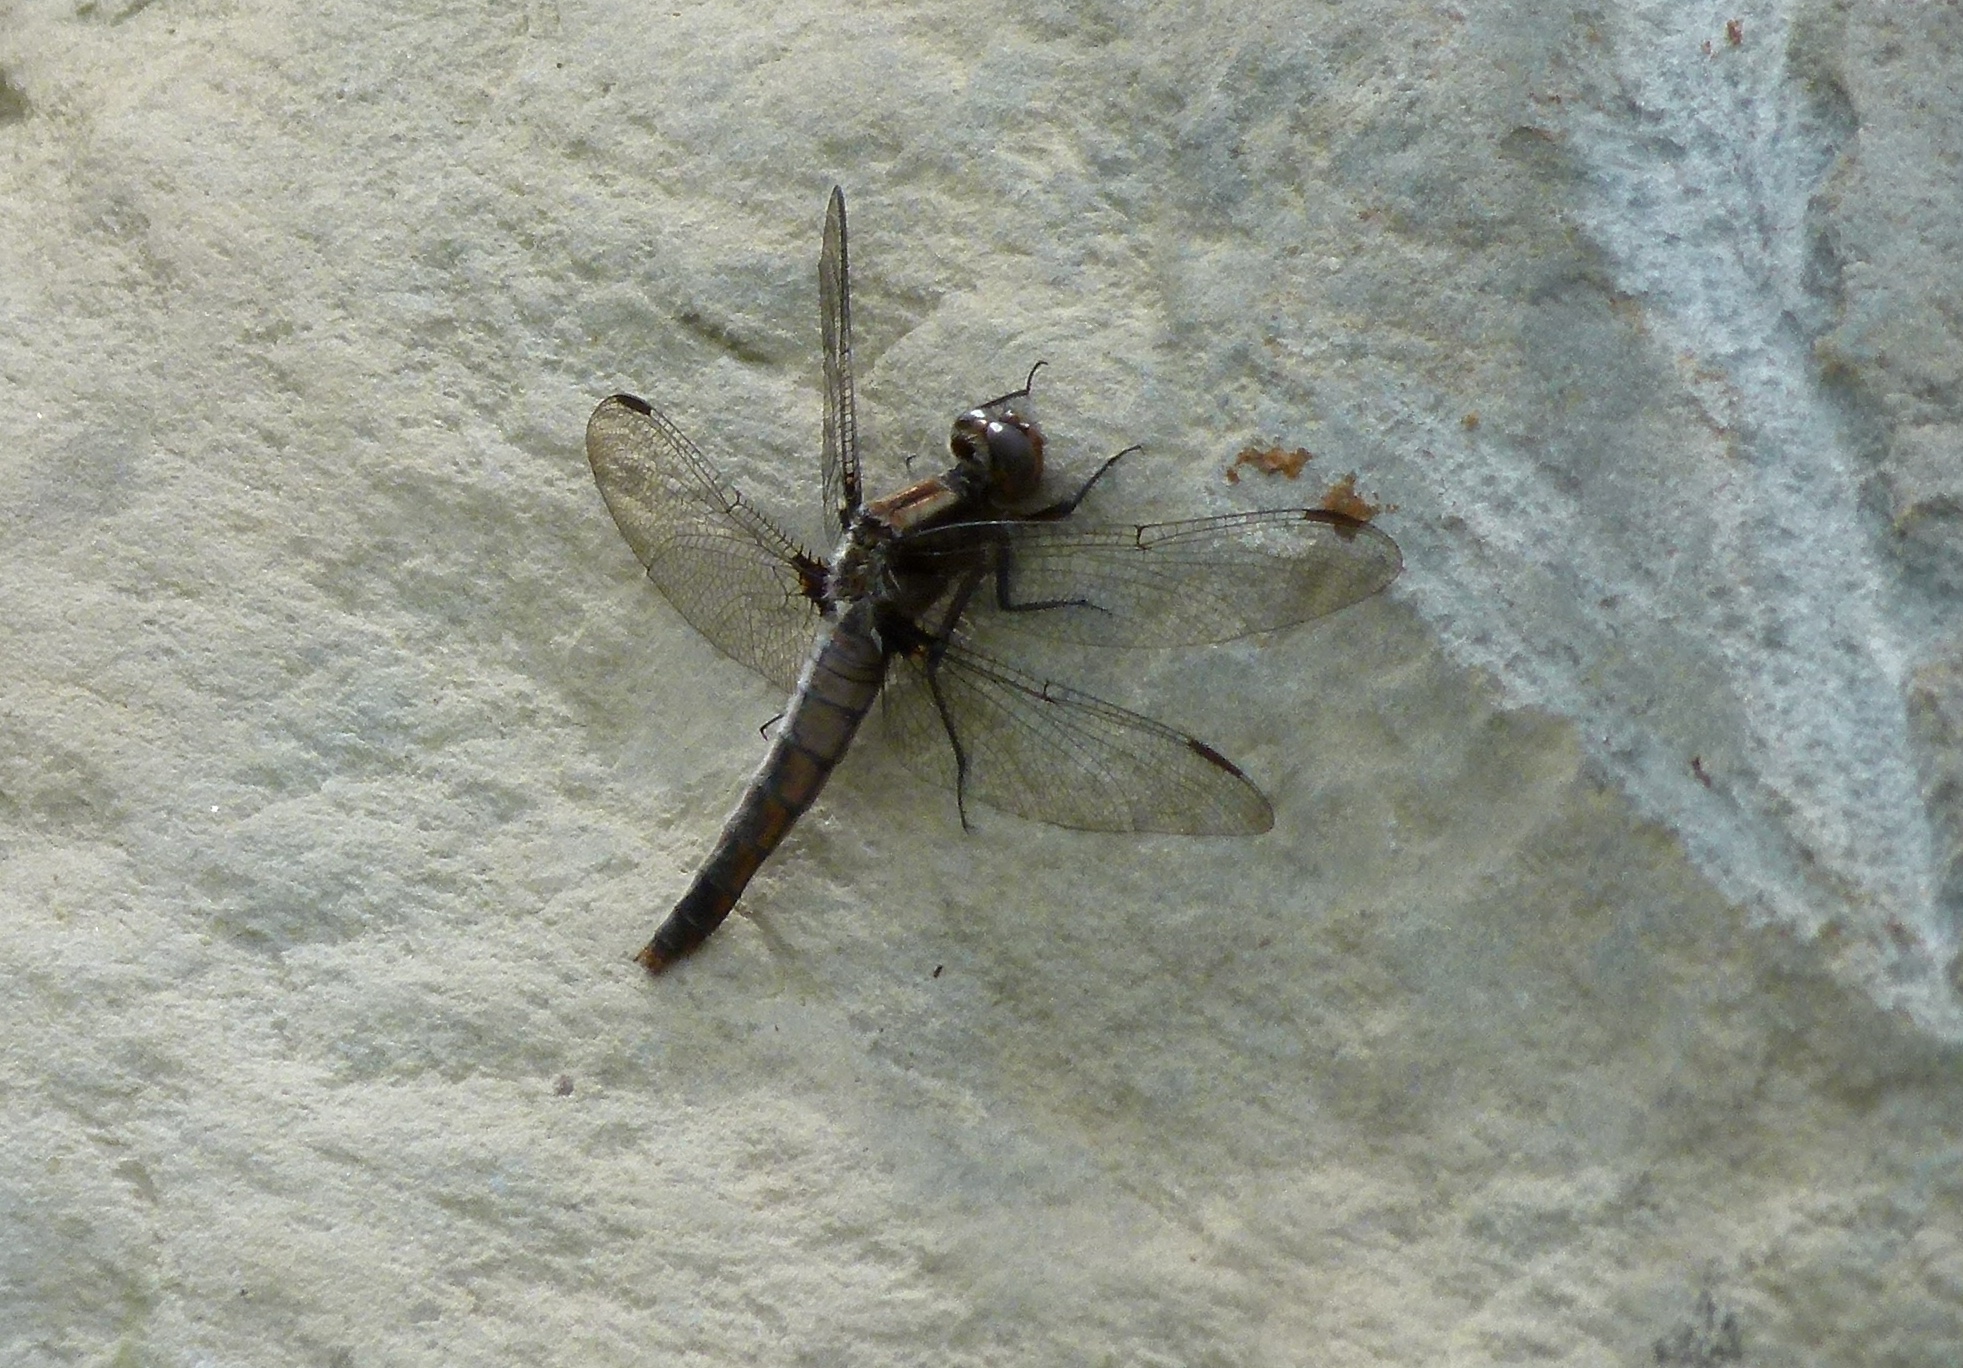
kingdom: Animalia
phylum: Arthropoda
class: Insecta
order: Odonata
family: Libellulidae
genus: Ladona
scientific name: Ladona julia
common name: Chalk-fronted corporal
